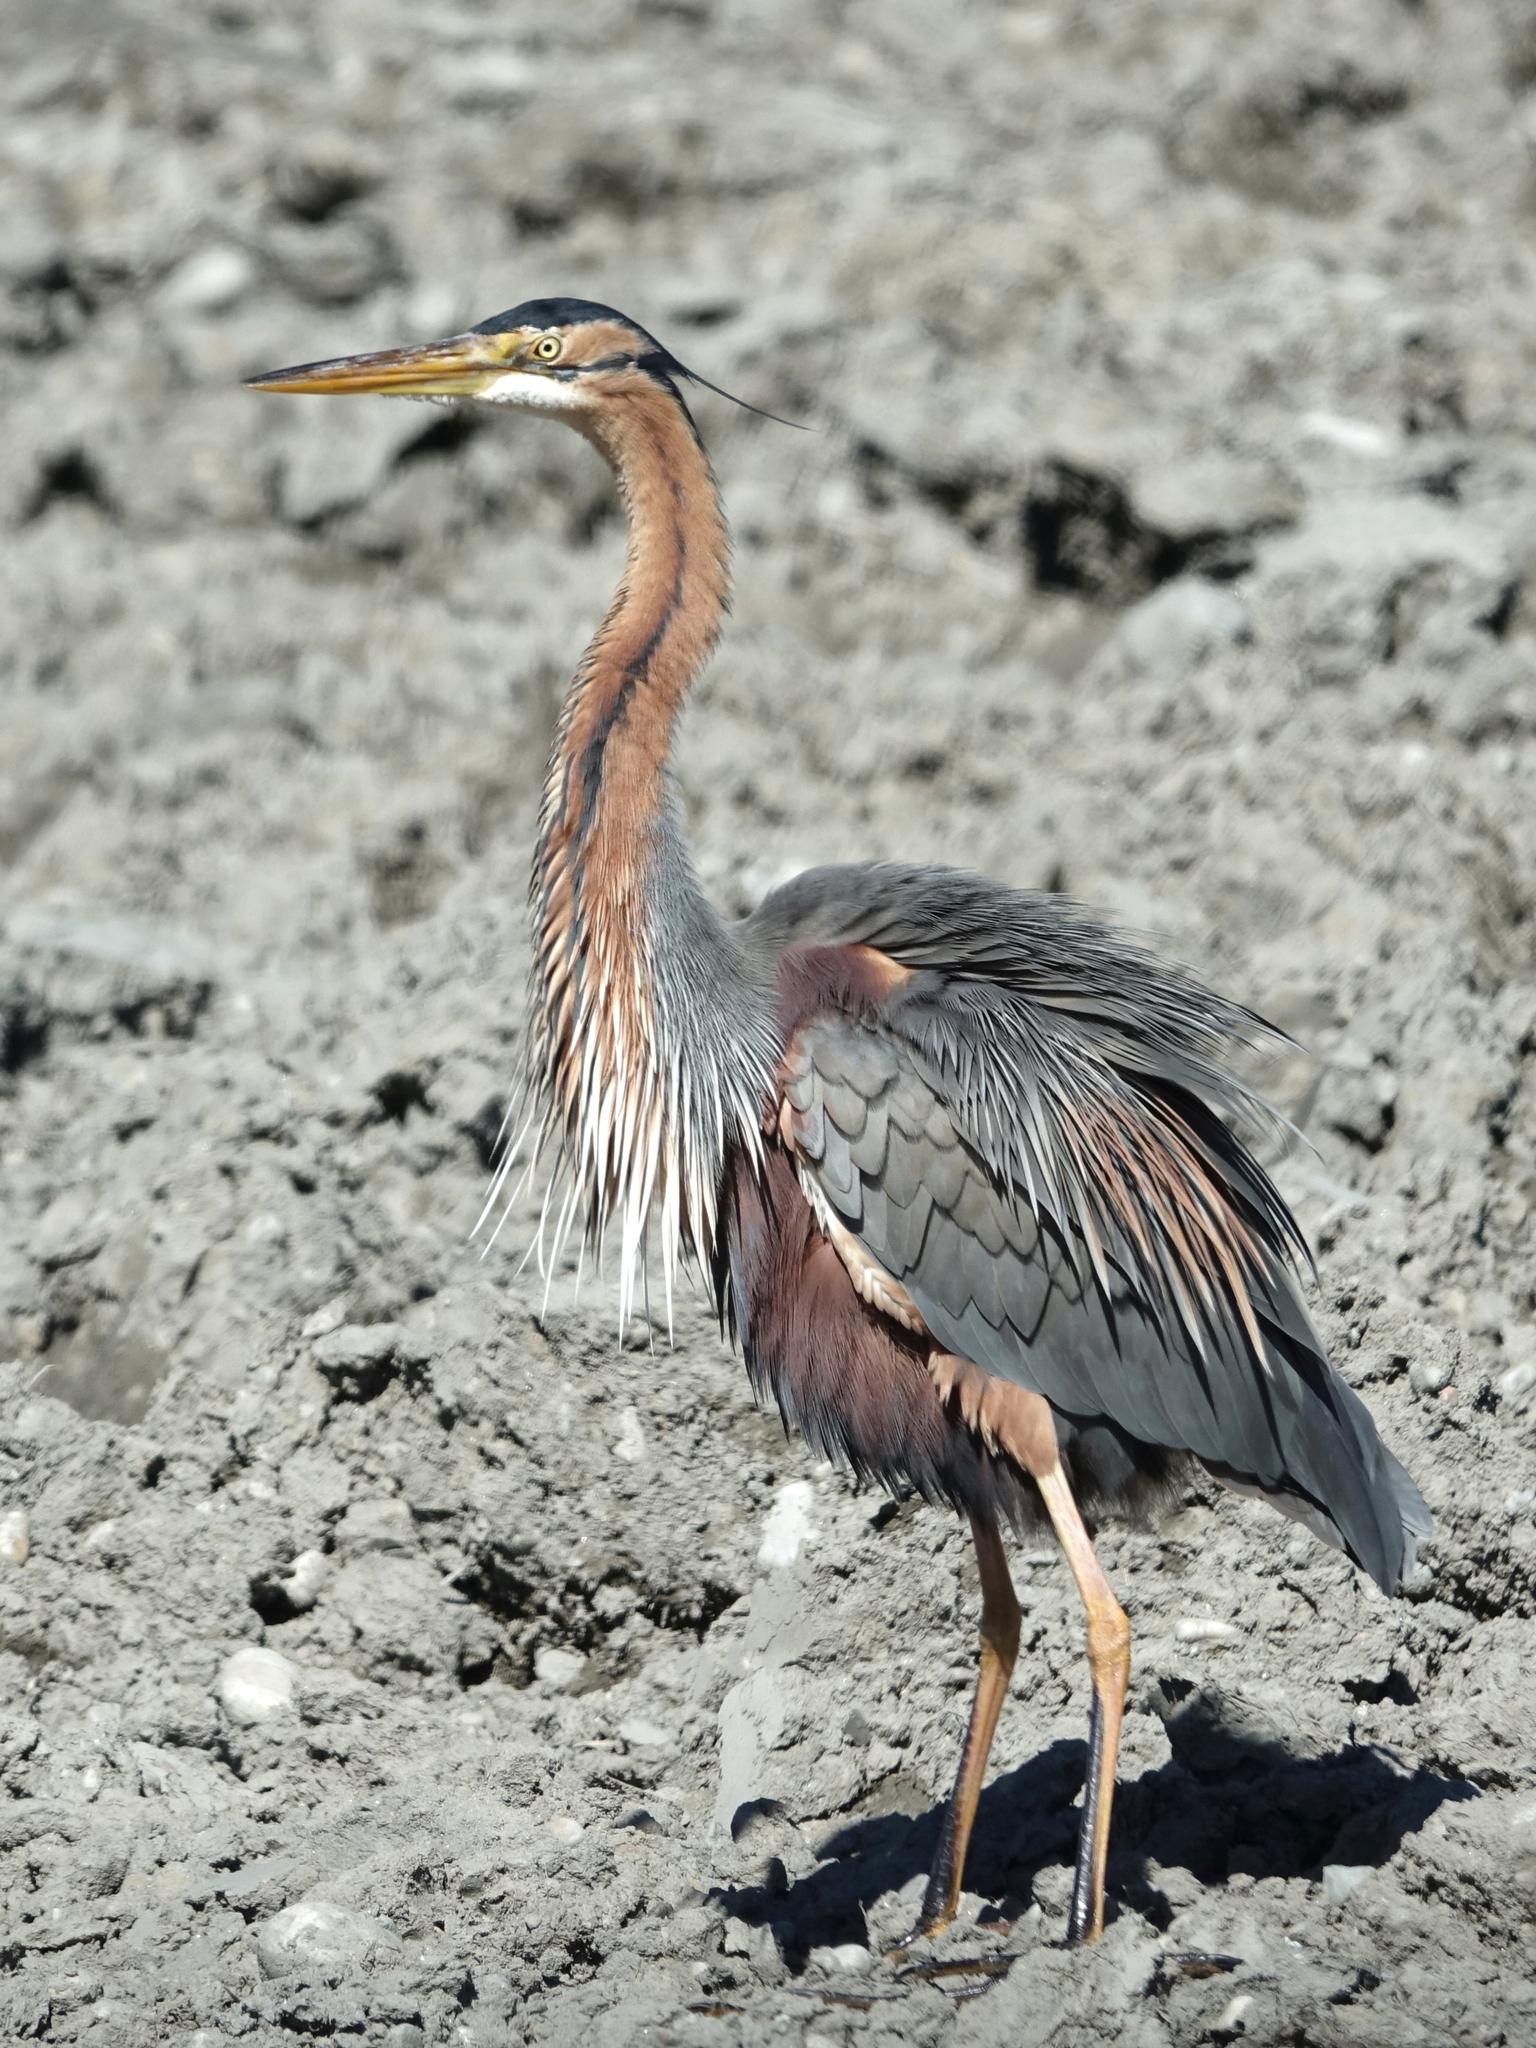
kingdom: Animalia
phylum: Chordata
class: Aves
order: Pelecaniformes
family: Ardeidae
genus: Ardea
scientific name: Ardea purpurea
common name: Purple heron
